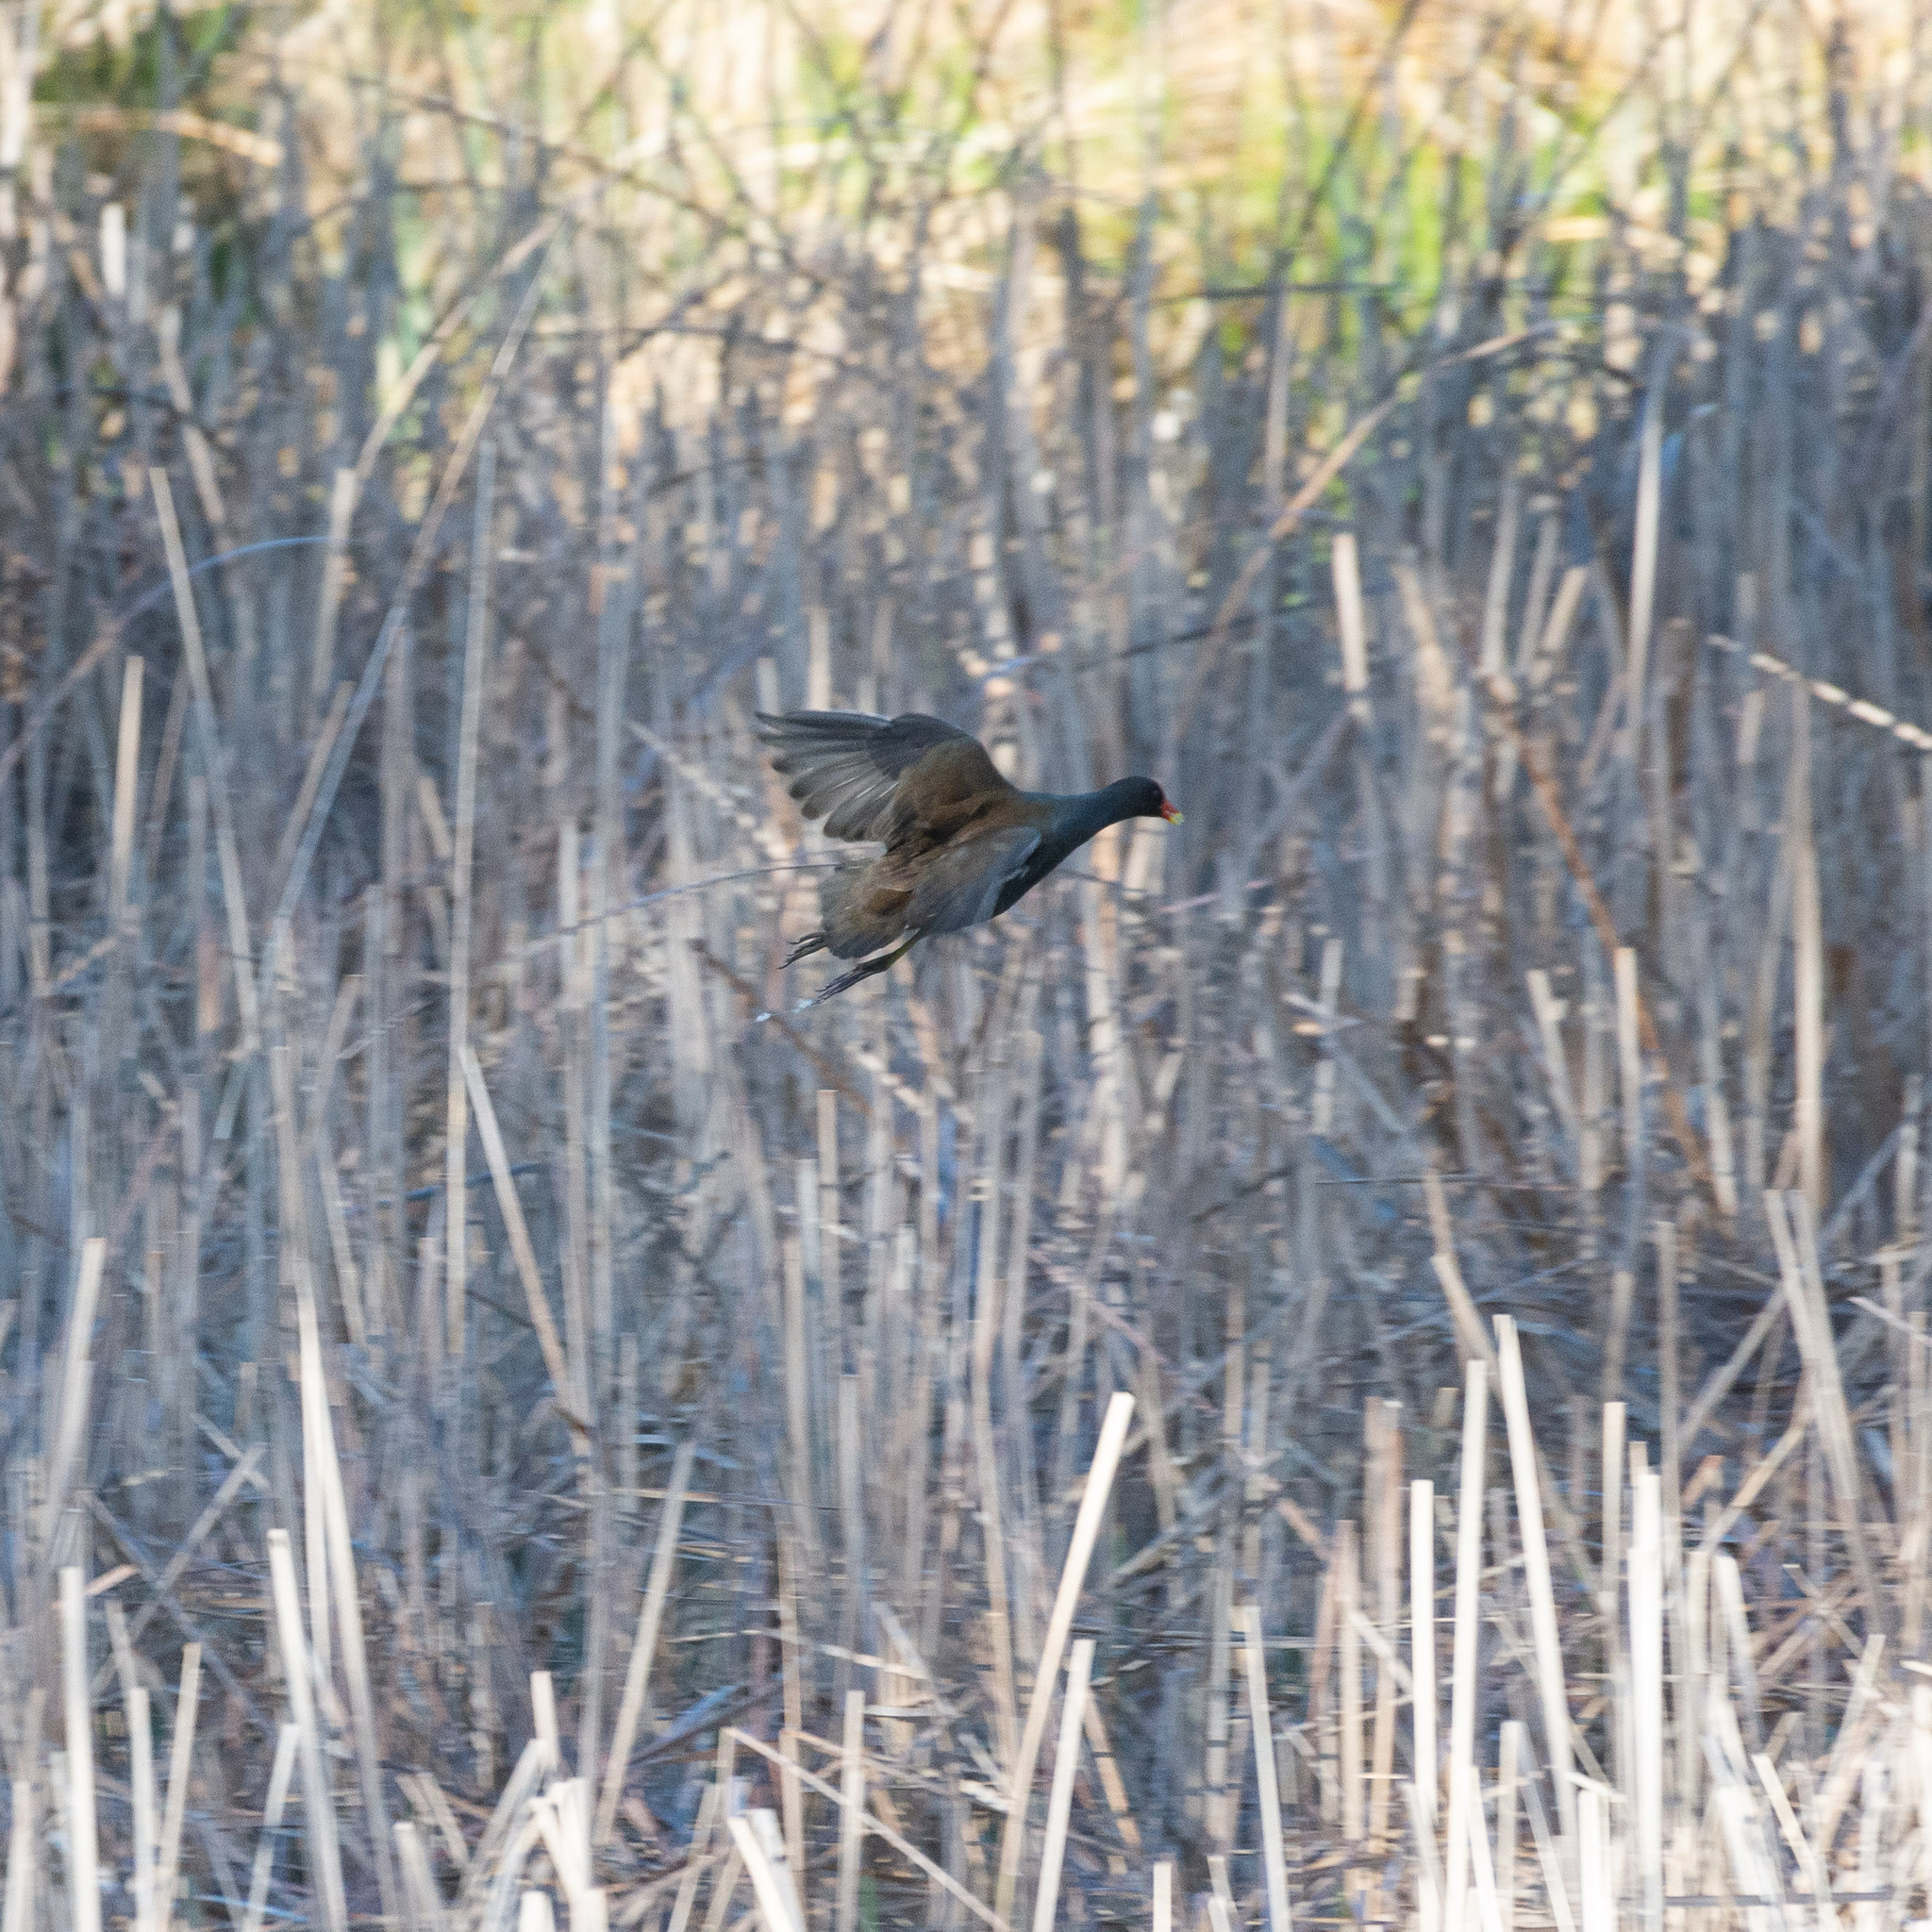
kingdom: Animalia
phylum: Chordata
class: Aves
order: Gruiformes
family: Rallidae
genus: Gallinula
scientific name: Gallinula chloropus
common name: Common moorhen
